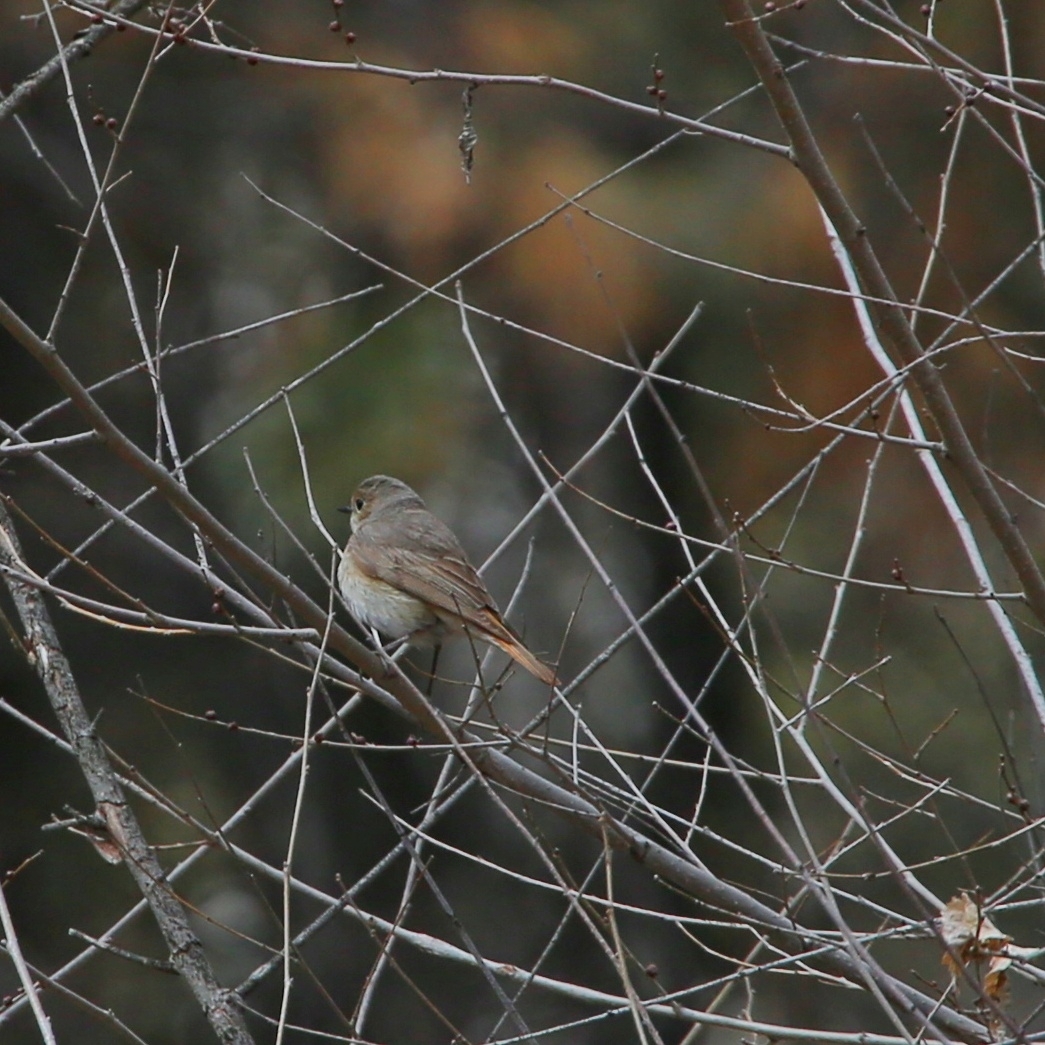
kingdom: Animalia
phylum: Chordata
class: Aves
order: Passeriformes
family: Muscicapidae
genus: Phoenicurus
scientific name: Phoenicurus phoenicurus
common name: Common redstart
